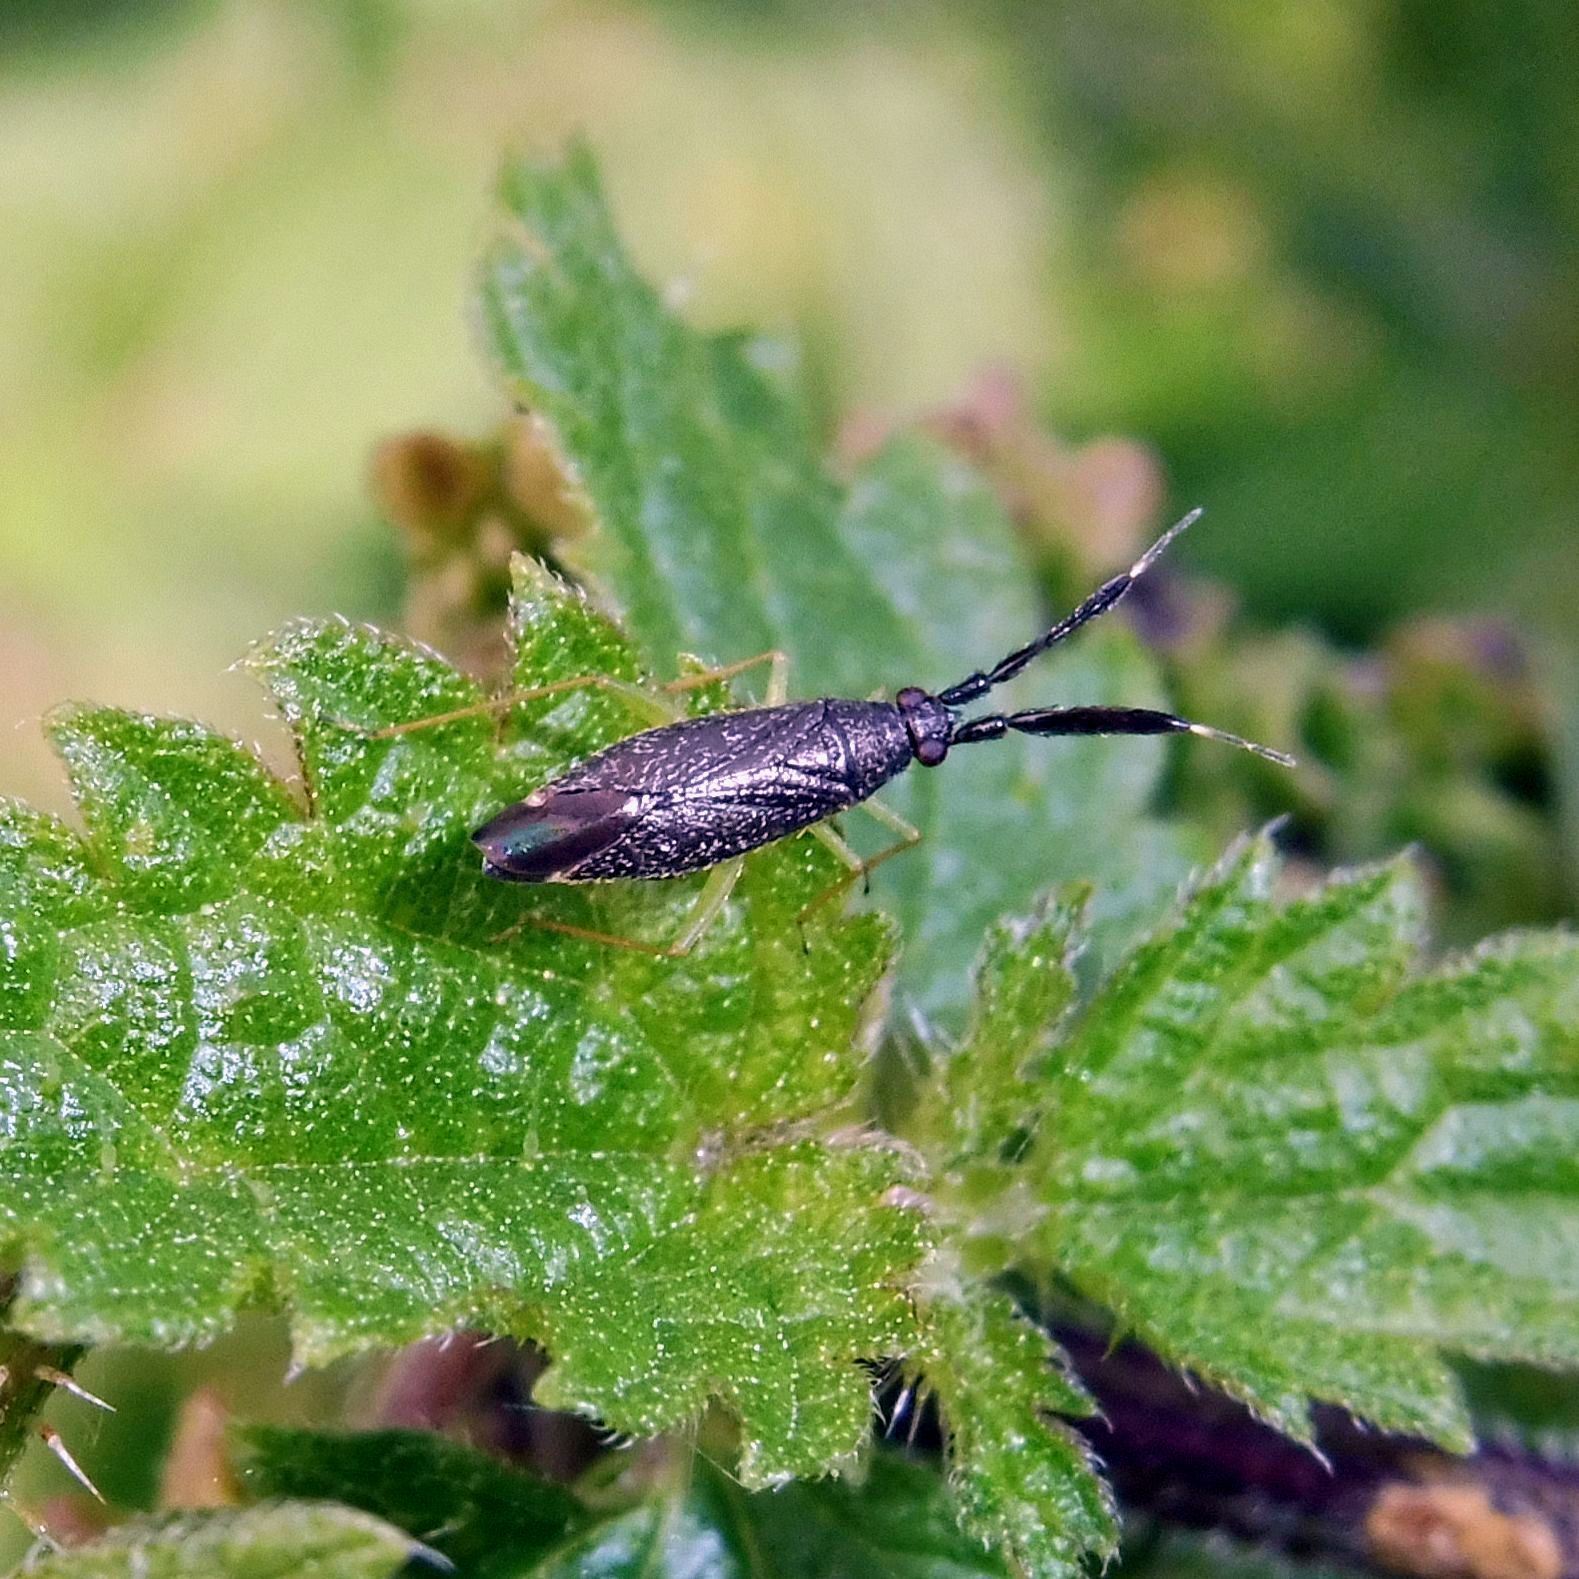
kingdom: Animalia
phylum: Arthropoda
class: Insecta
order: Hemiptera
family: Miridae
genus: Heterotoma
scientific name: Heterotoma planicornis
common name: Plant bug
